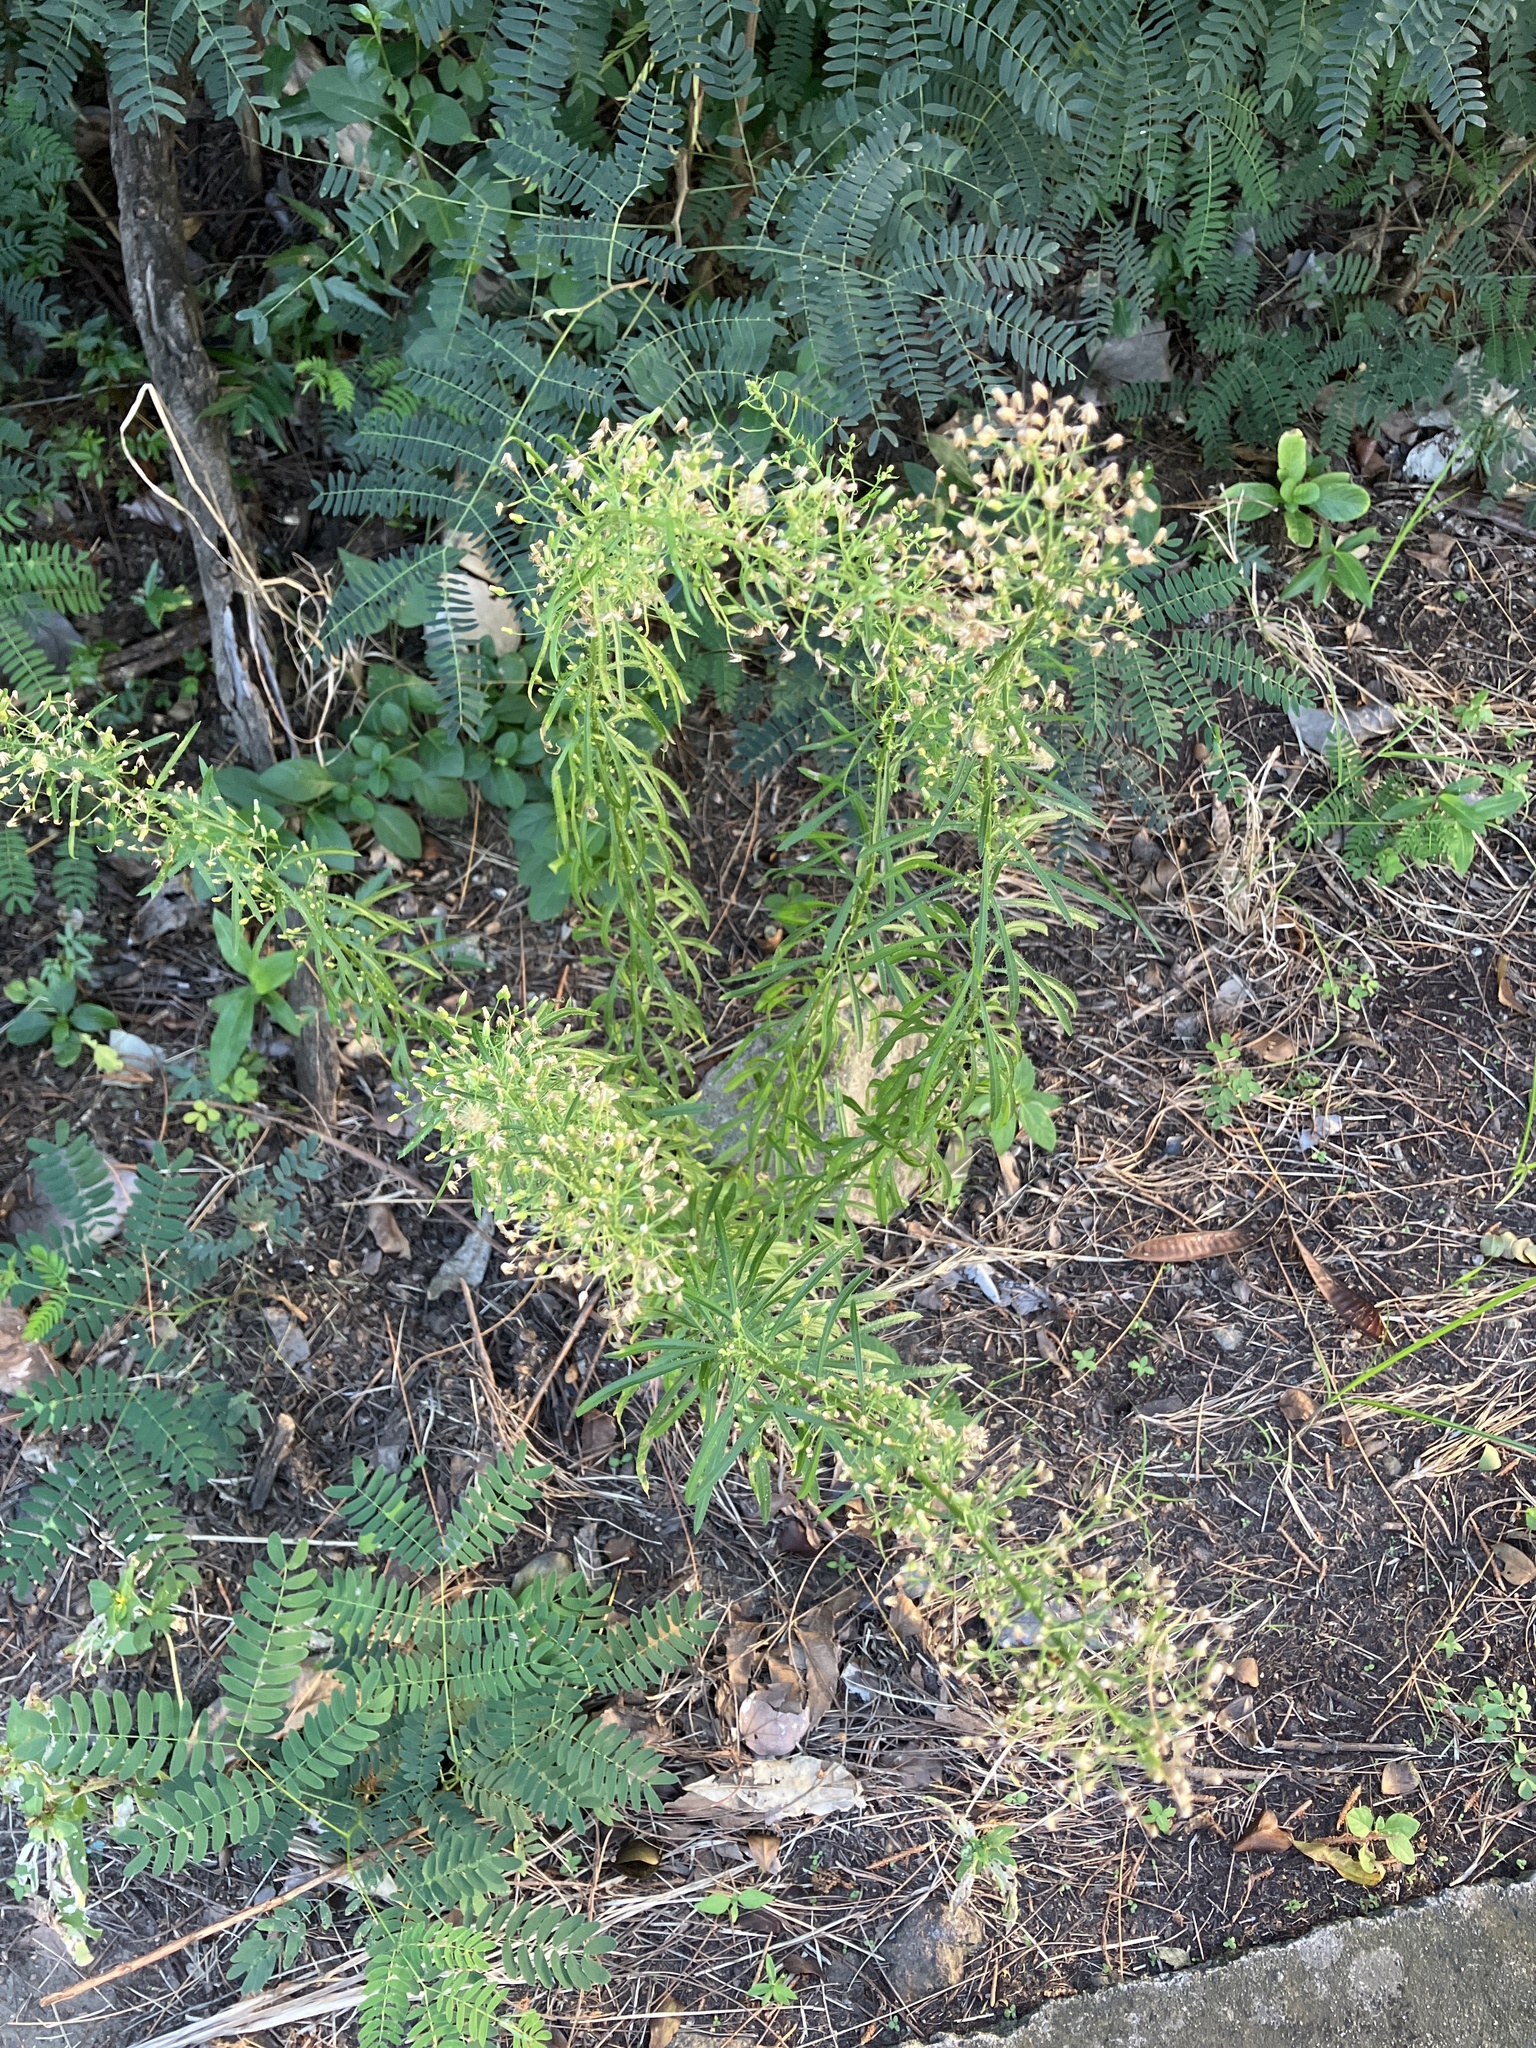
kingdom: Plantae
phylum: Tracheophyta
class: Magnoliopsida
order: Asterales
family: Asteraceae
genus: Erigeron
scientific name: Erigeron canadensis
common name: Canadian fleabane
